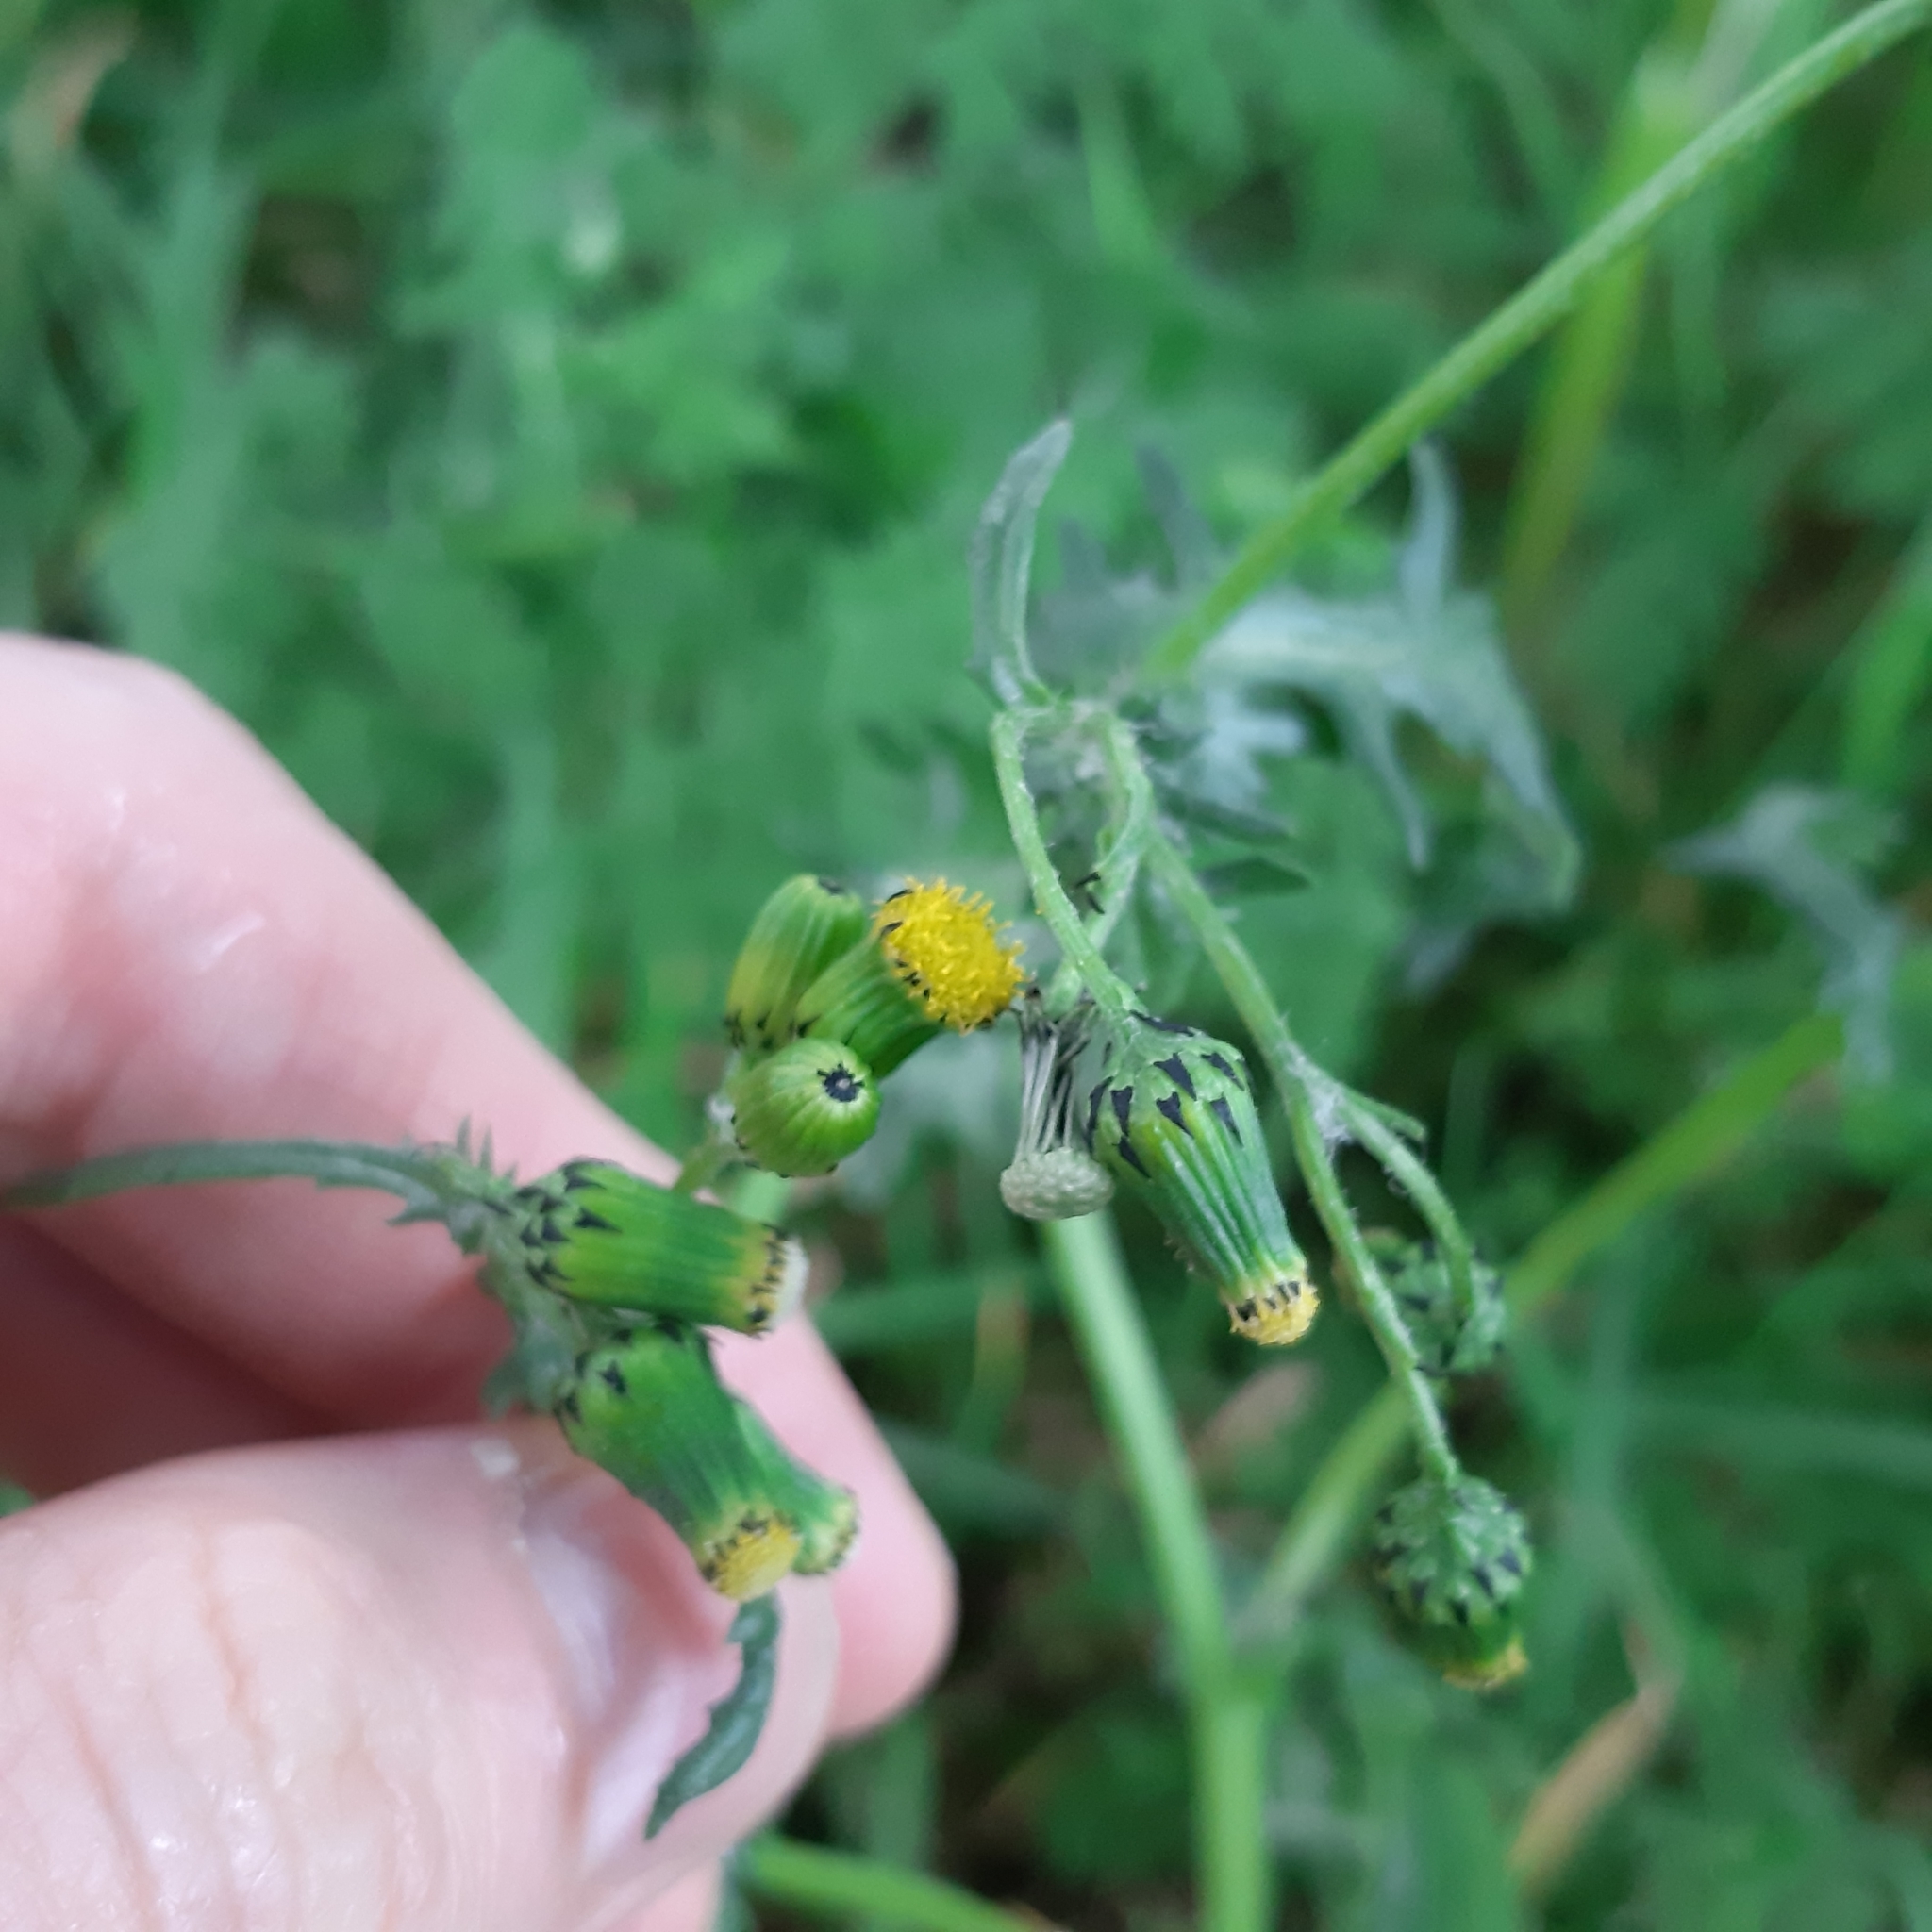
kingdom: Plantae
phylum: Tracheophyta
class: Magnoliopsida
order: Asterales
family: Asteraceae
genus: Senecio
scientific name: Senecio vulgaris
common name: Old-man-in-the-spring
